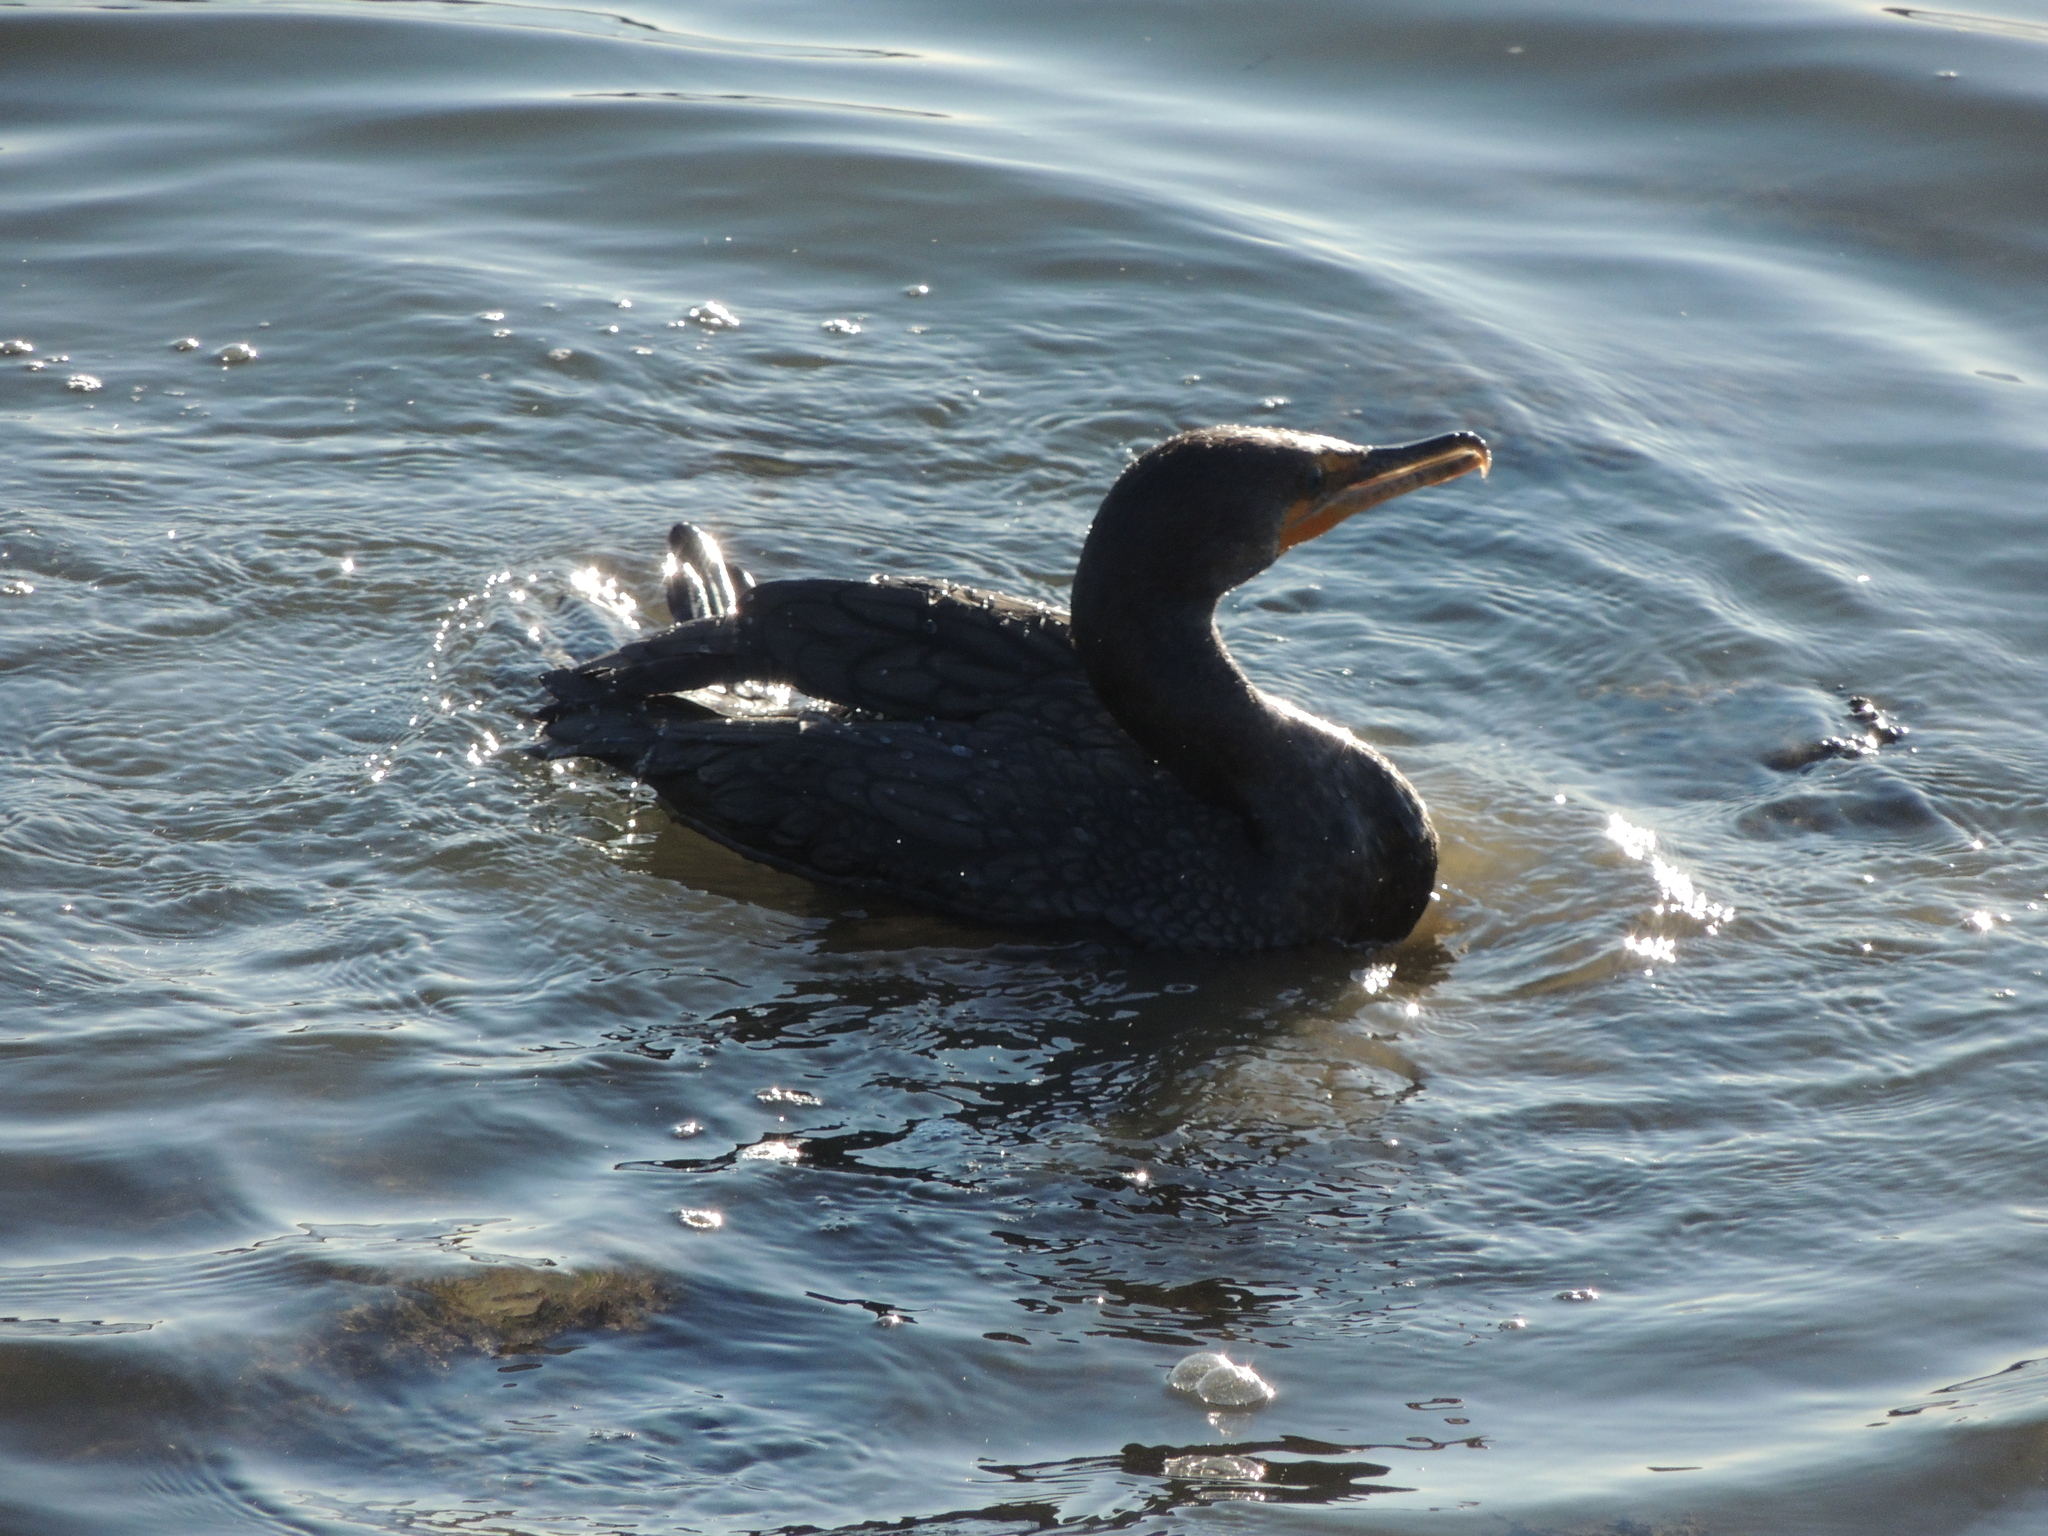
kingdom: Animalia
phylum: Chordata
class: Aves
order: Suliformes
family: Phalacrocoracidae
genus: Phalacrocorax
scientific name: Phalacrocorax auritus
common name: Double-crested cormorant
